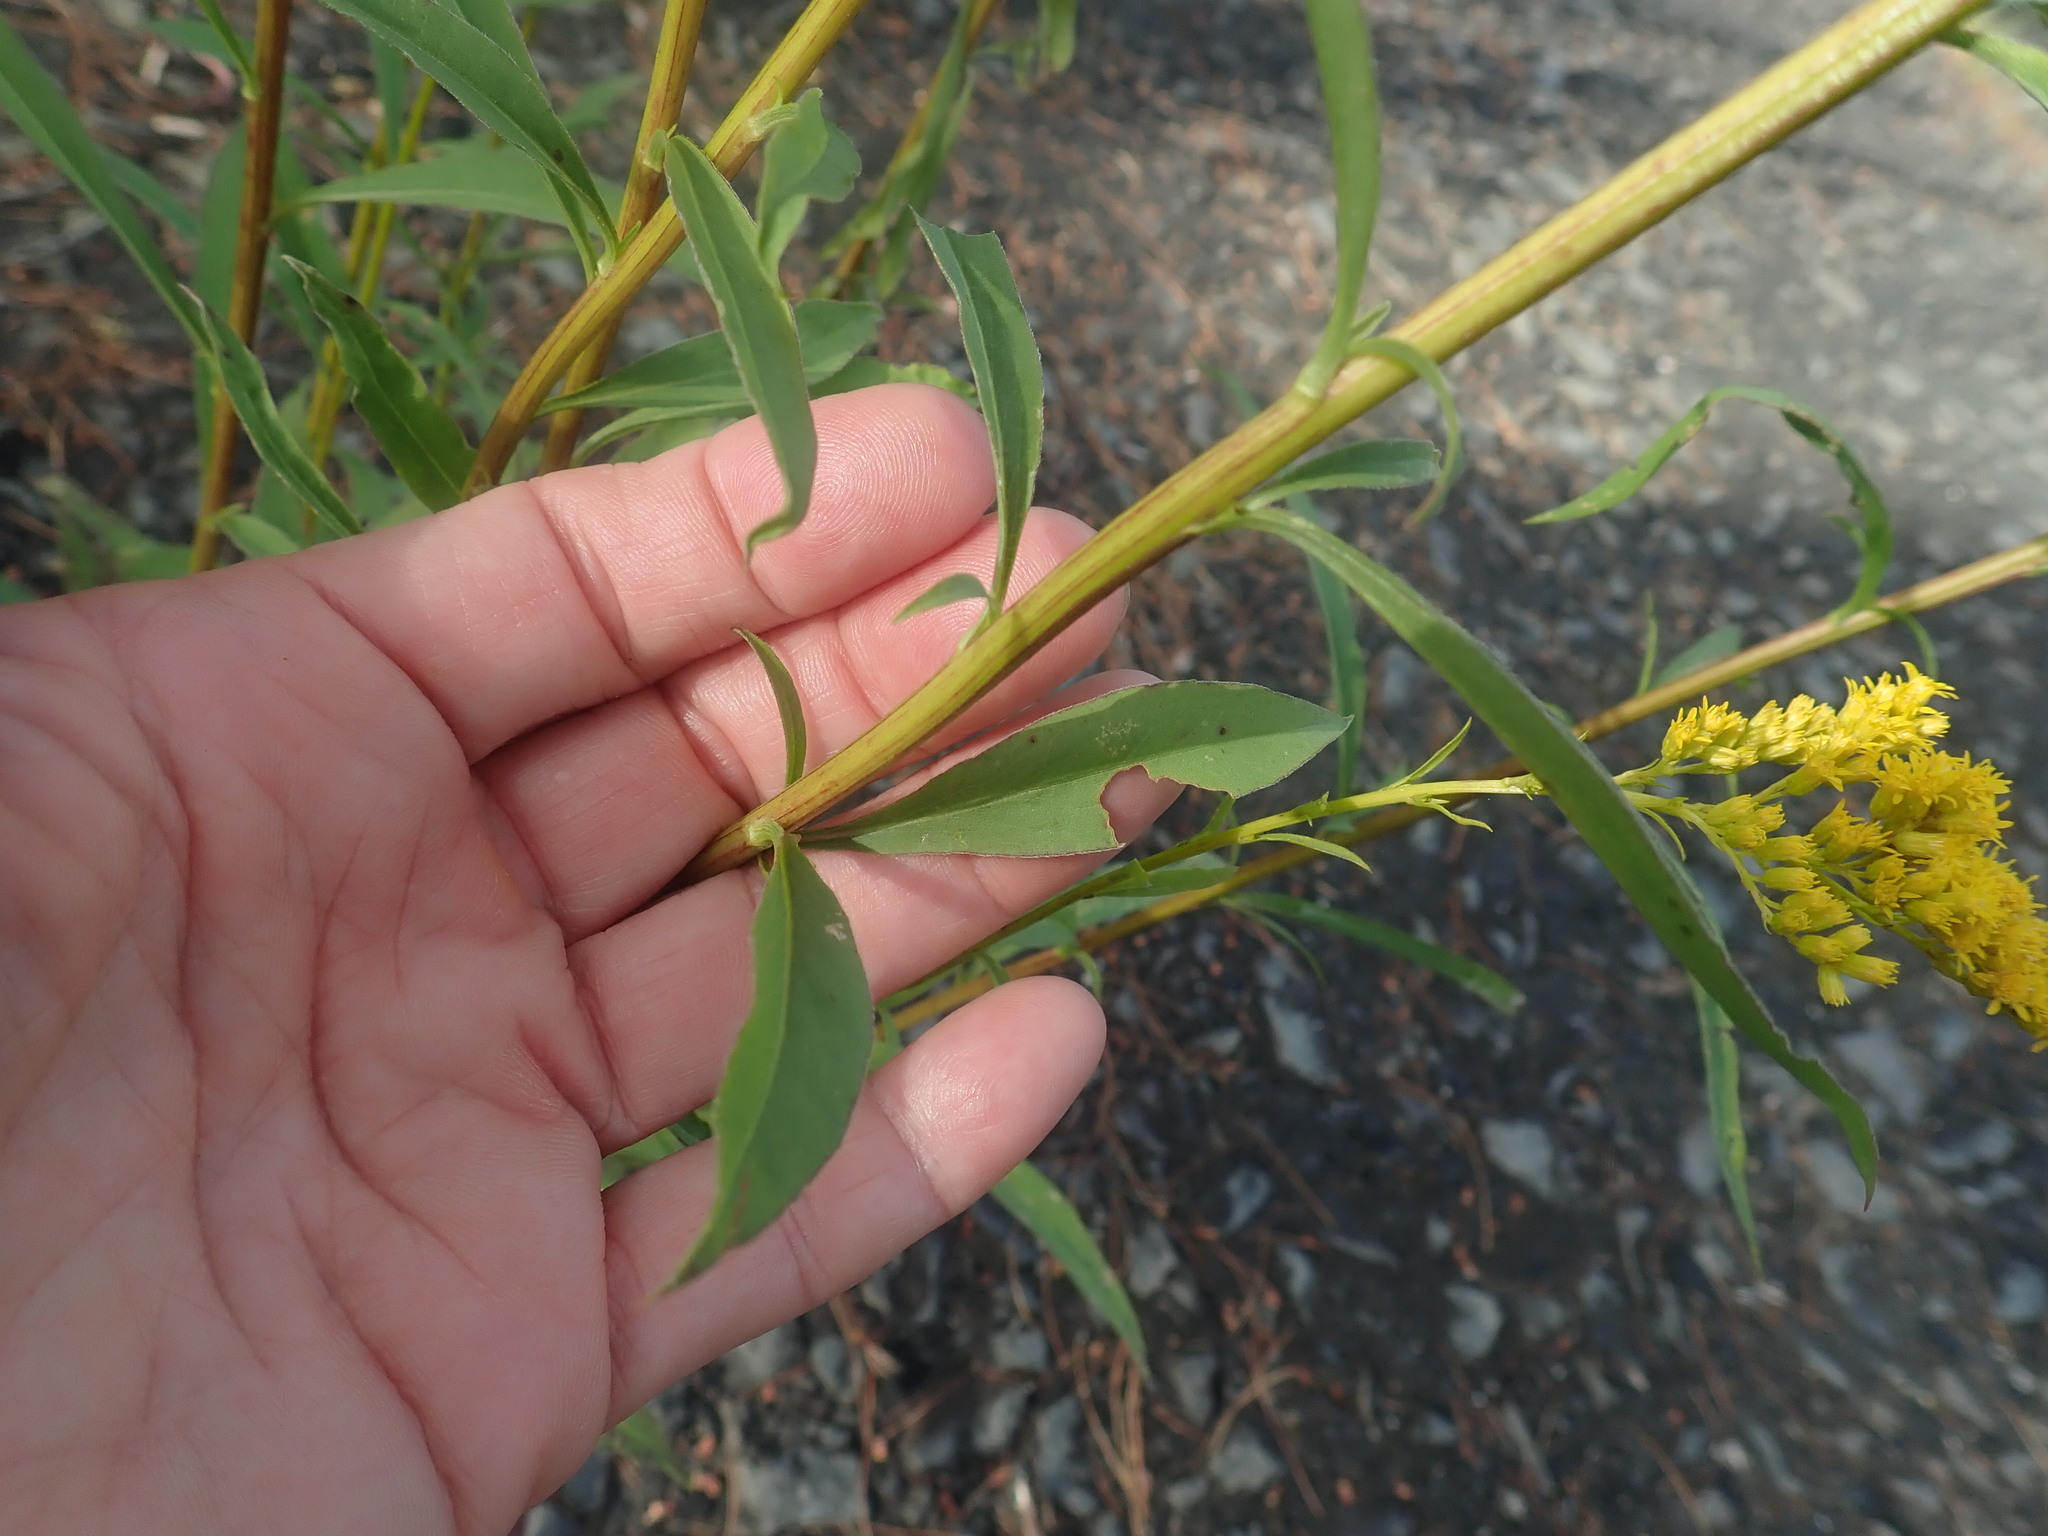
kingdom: Plantae
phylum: Tracheophyta
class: Magnoliopsida
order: Asterales
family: Asteraceae
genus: Solidago
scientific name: Solidago juncea
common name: Early goldenrod
